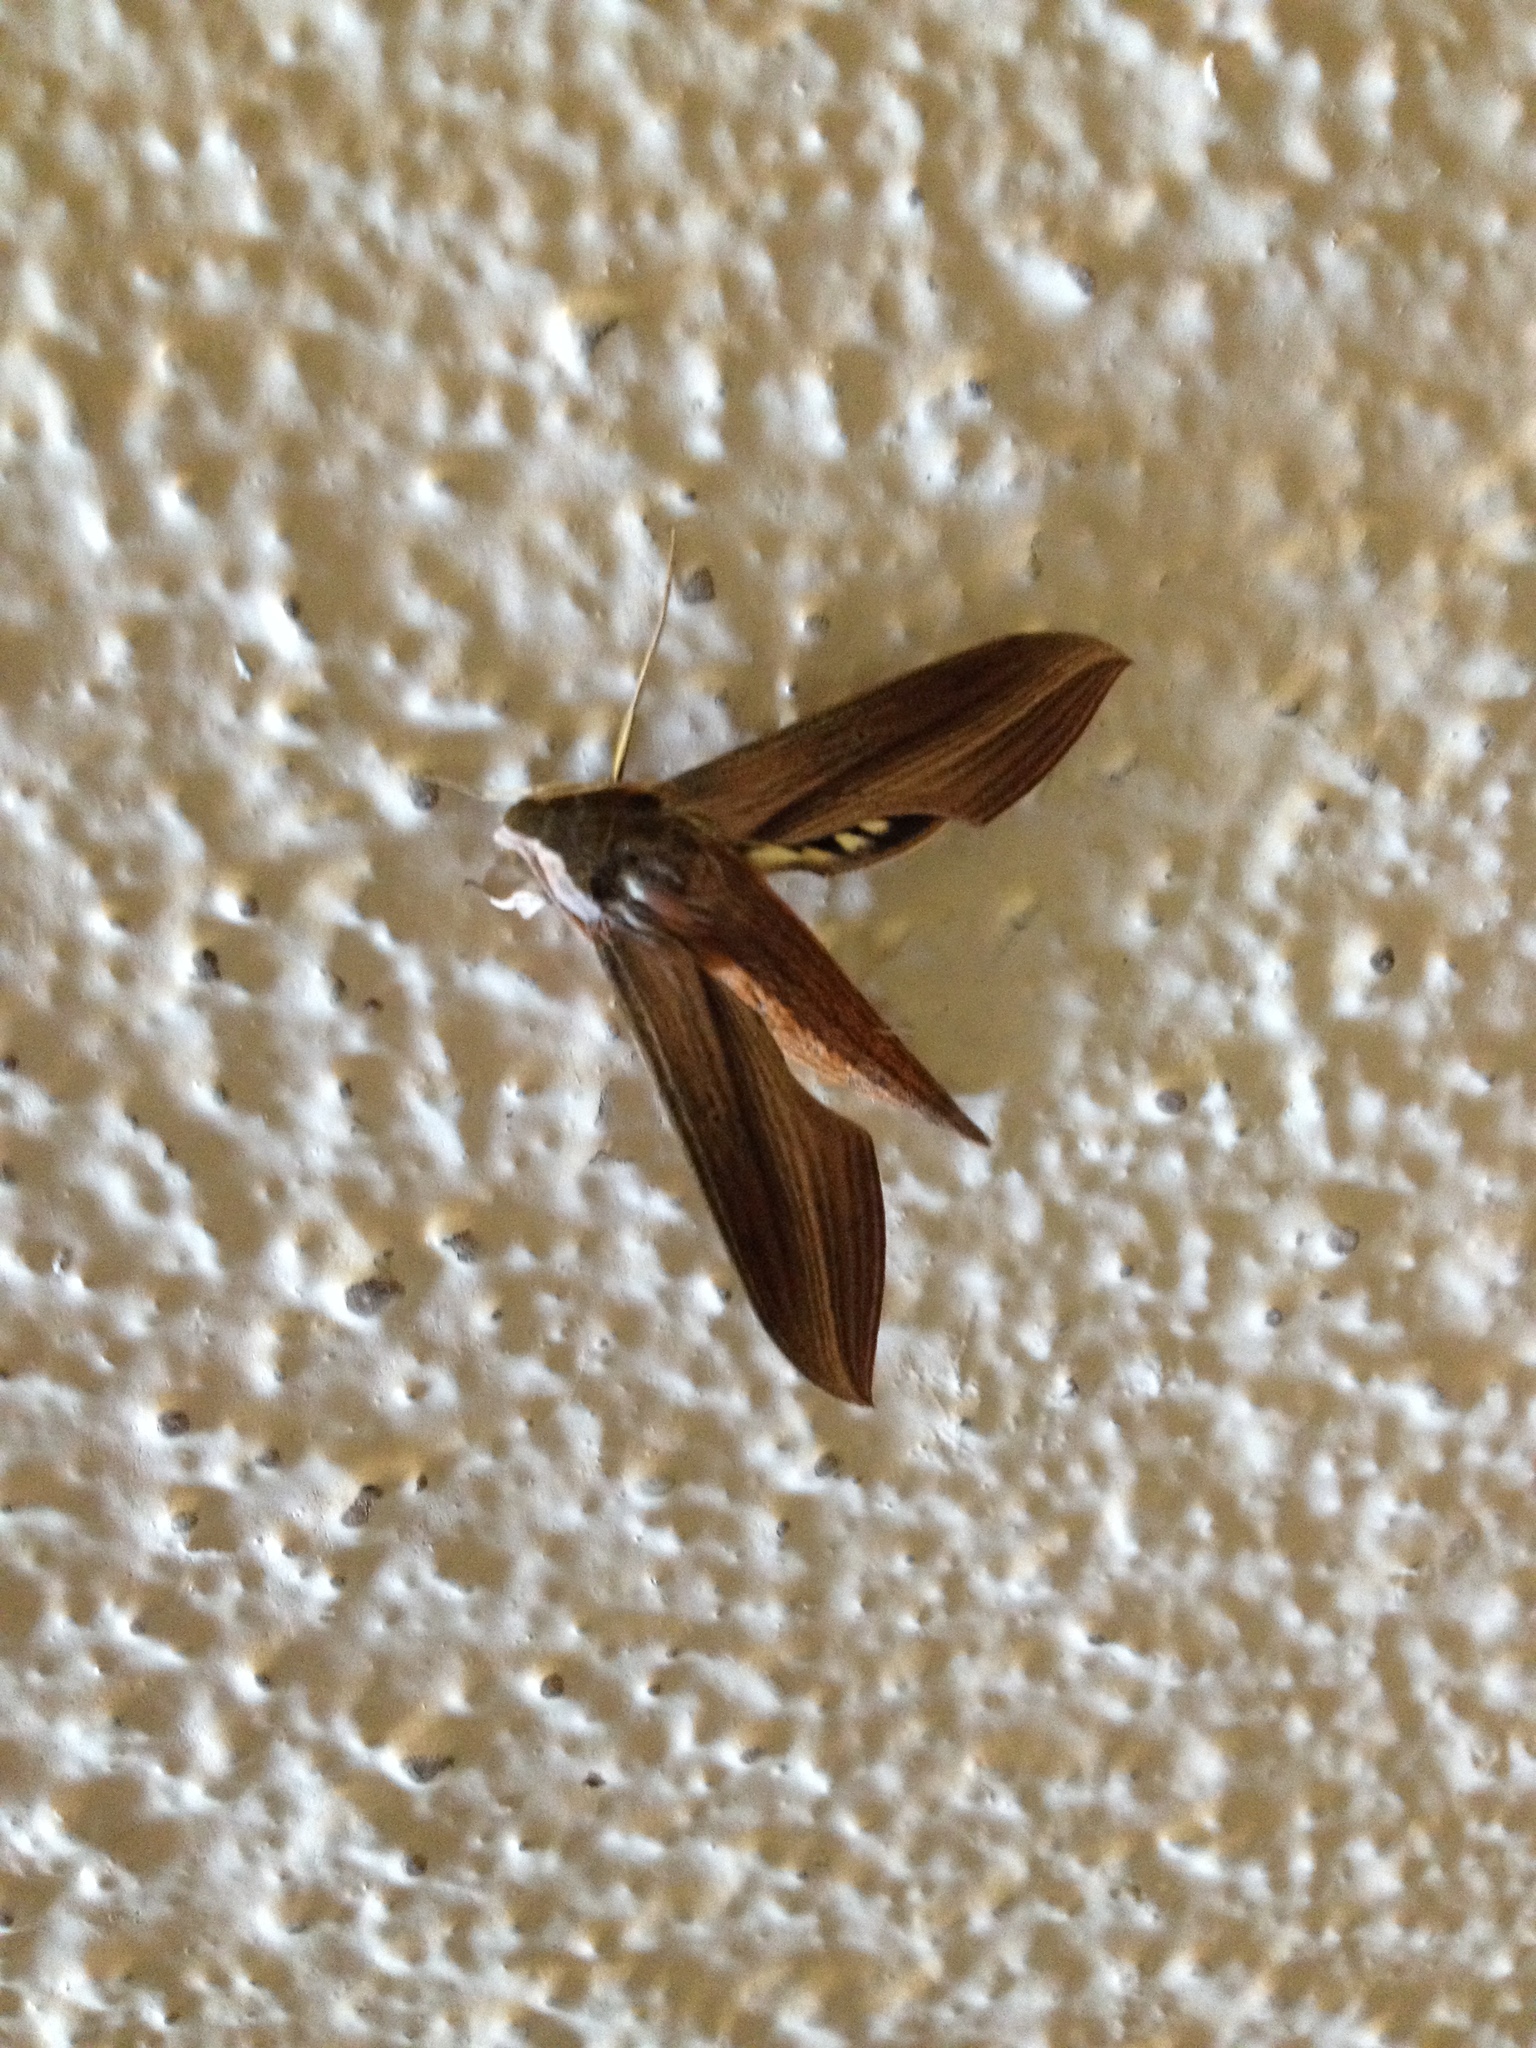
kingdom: Animalia
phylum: Arthropoda
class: Insecta
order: Lepidoptera
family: Sphingidae
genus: Xylophanes
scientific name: Xylophanes tersa
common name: Tersa sphinx
